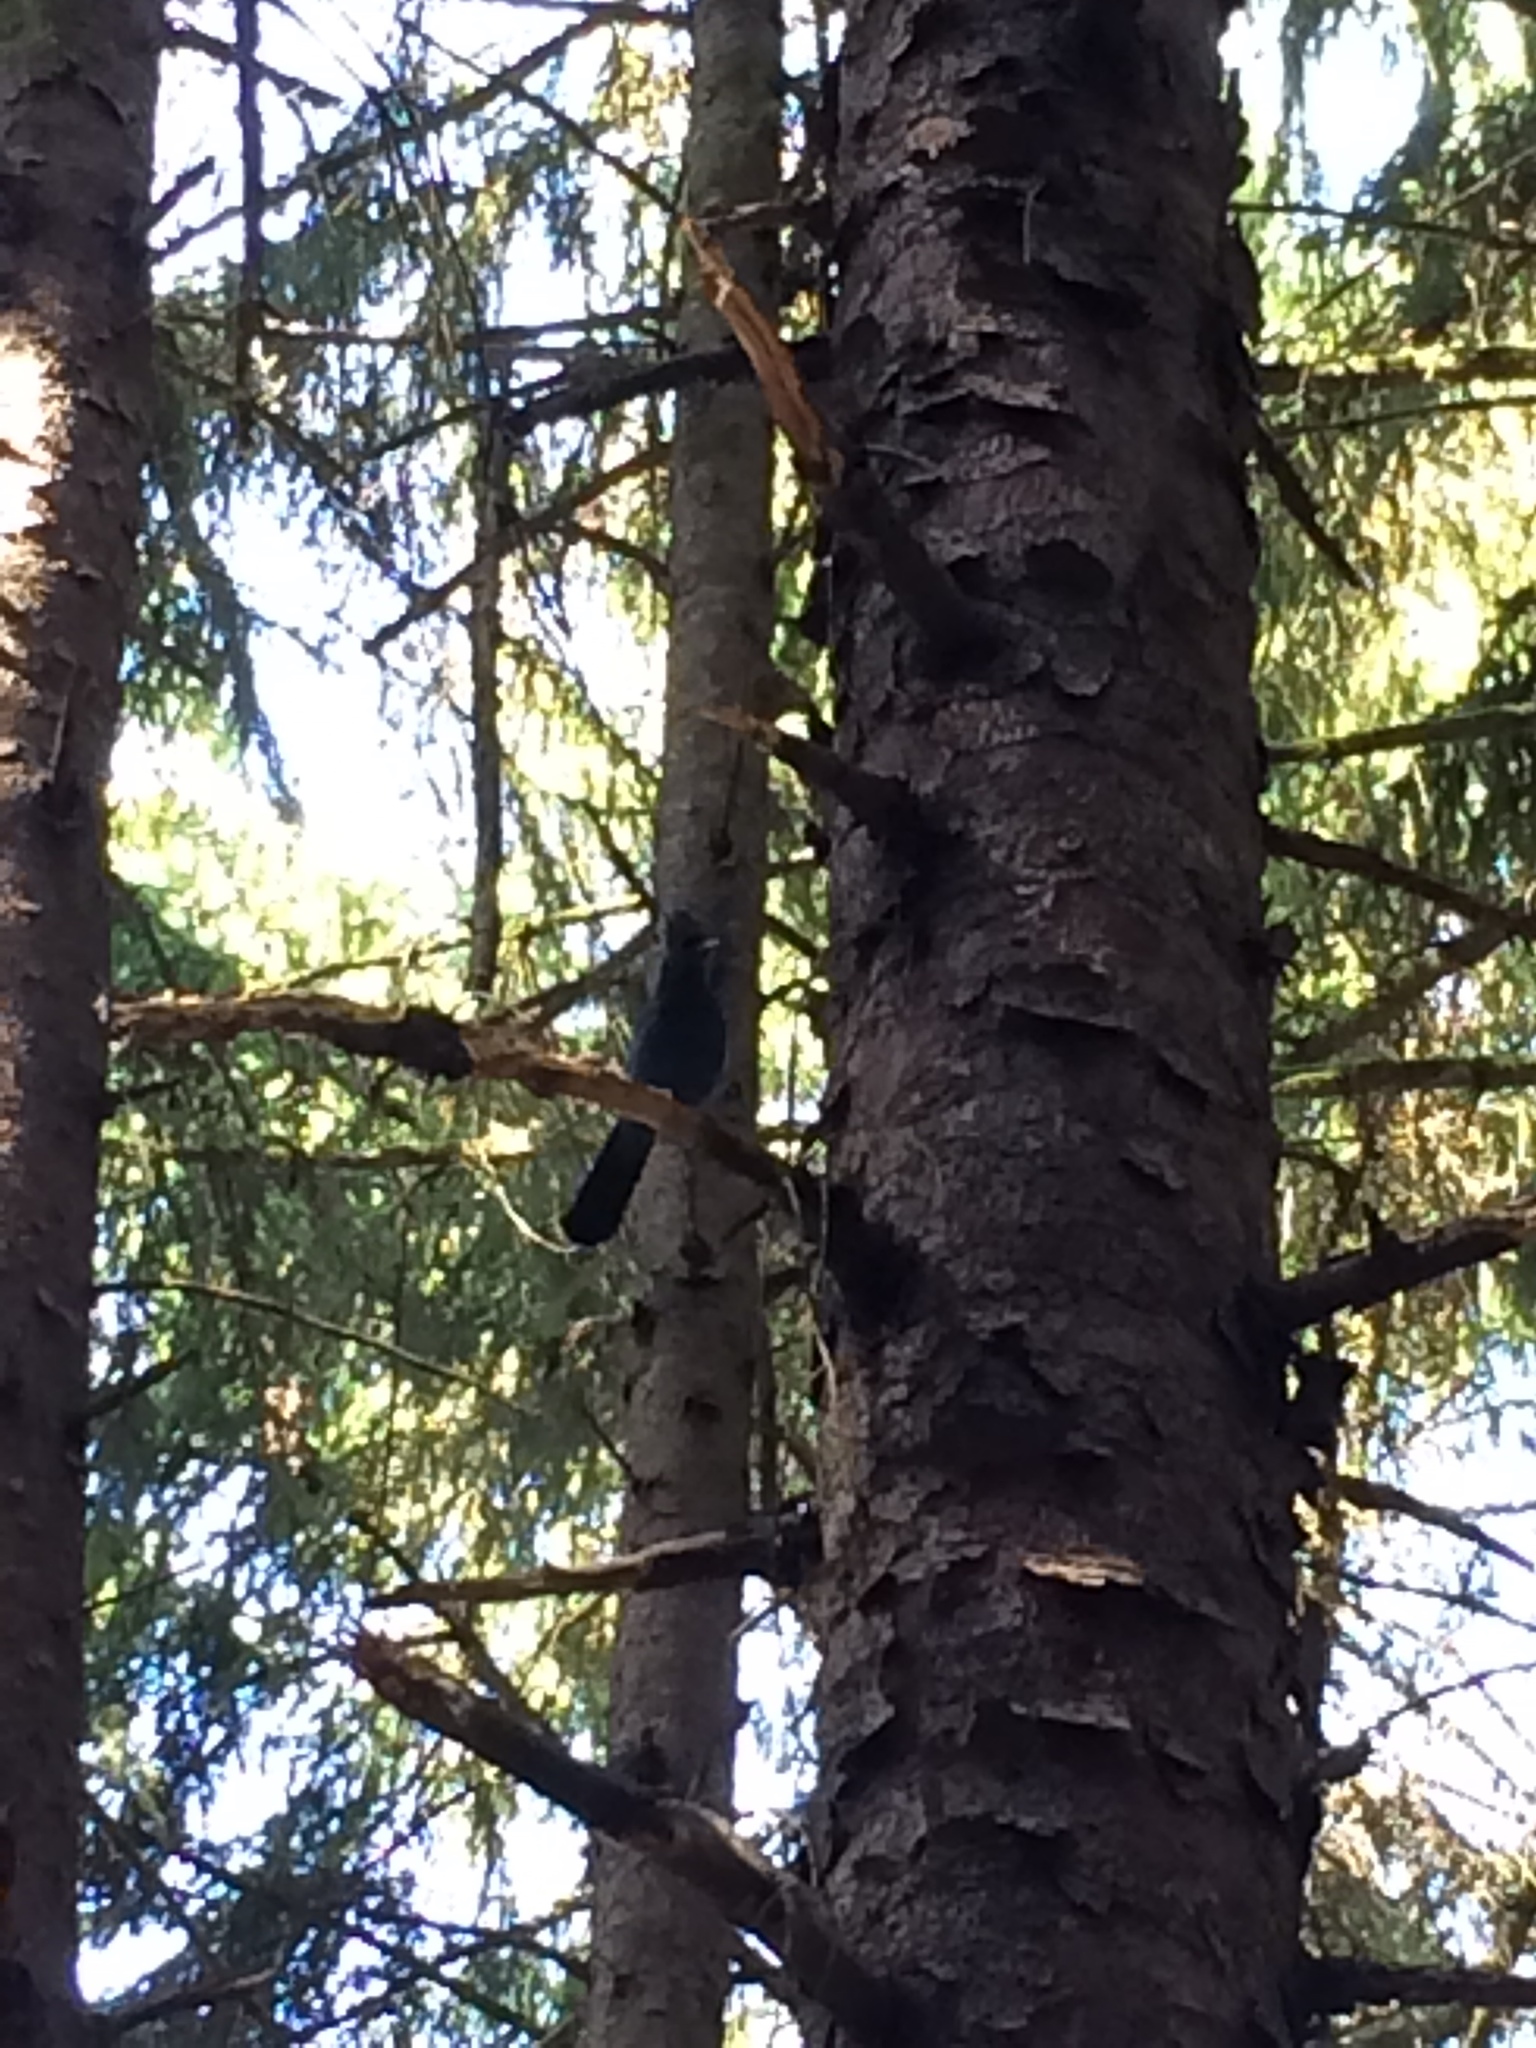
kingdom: Animalia
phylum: Chordata
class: Aves
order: Passeriformes
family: Corvidae
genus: Cyanocitta
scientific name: Cyanocitta stelleri
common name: Steller's jay
